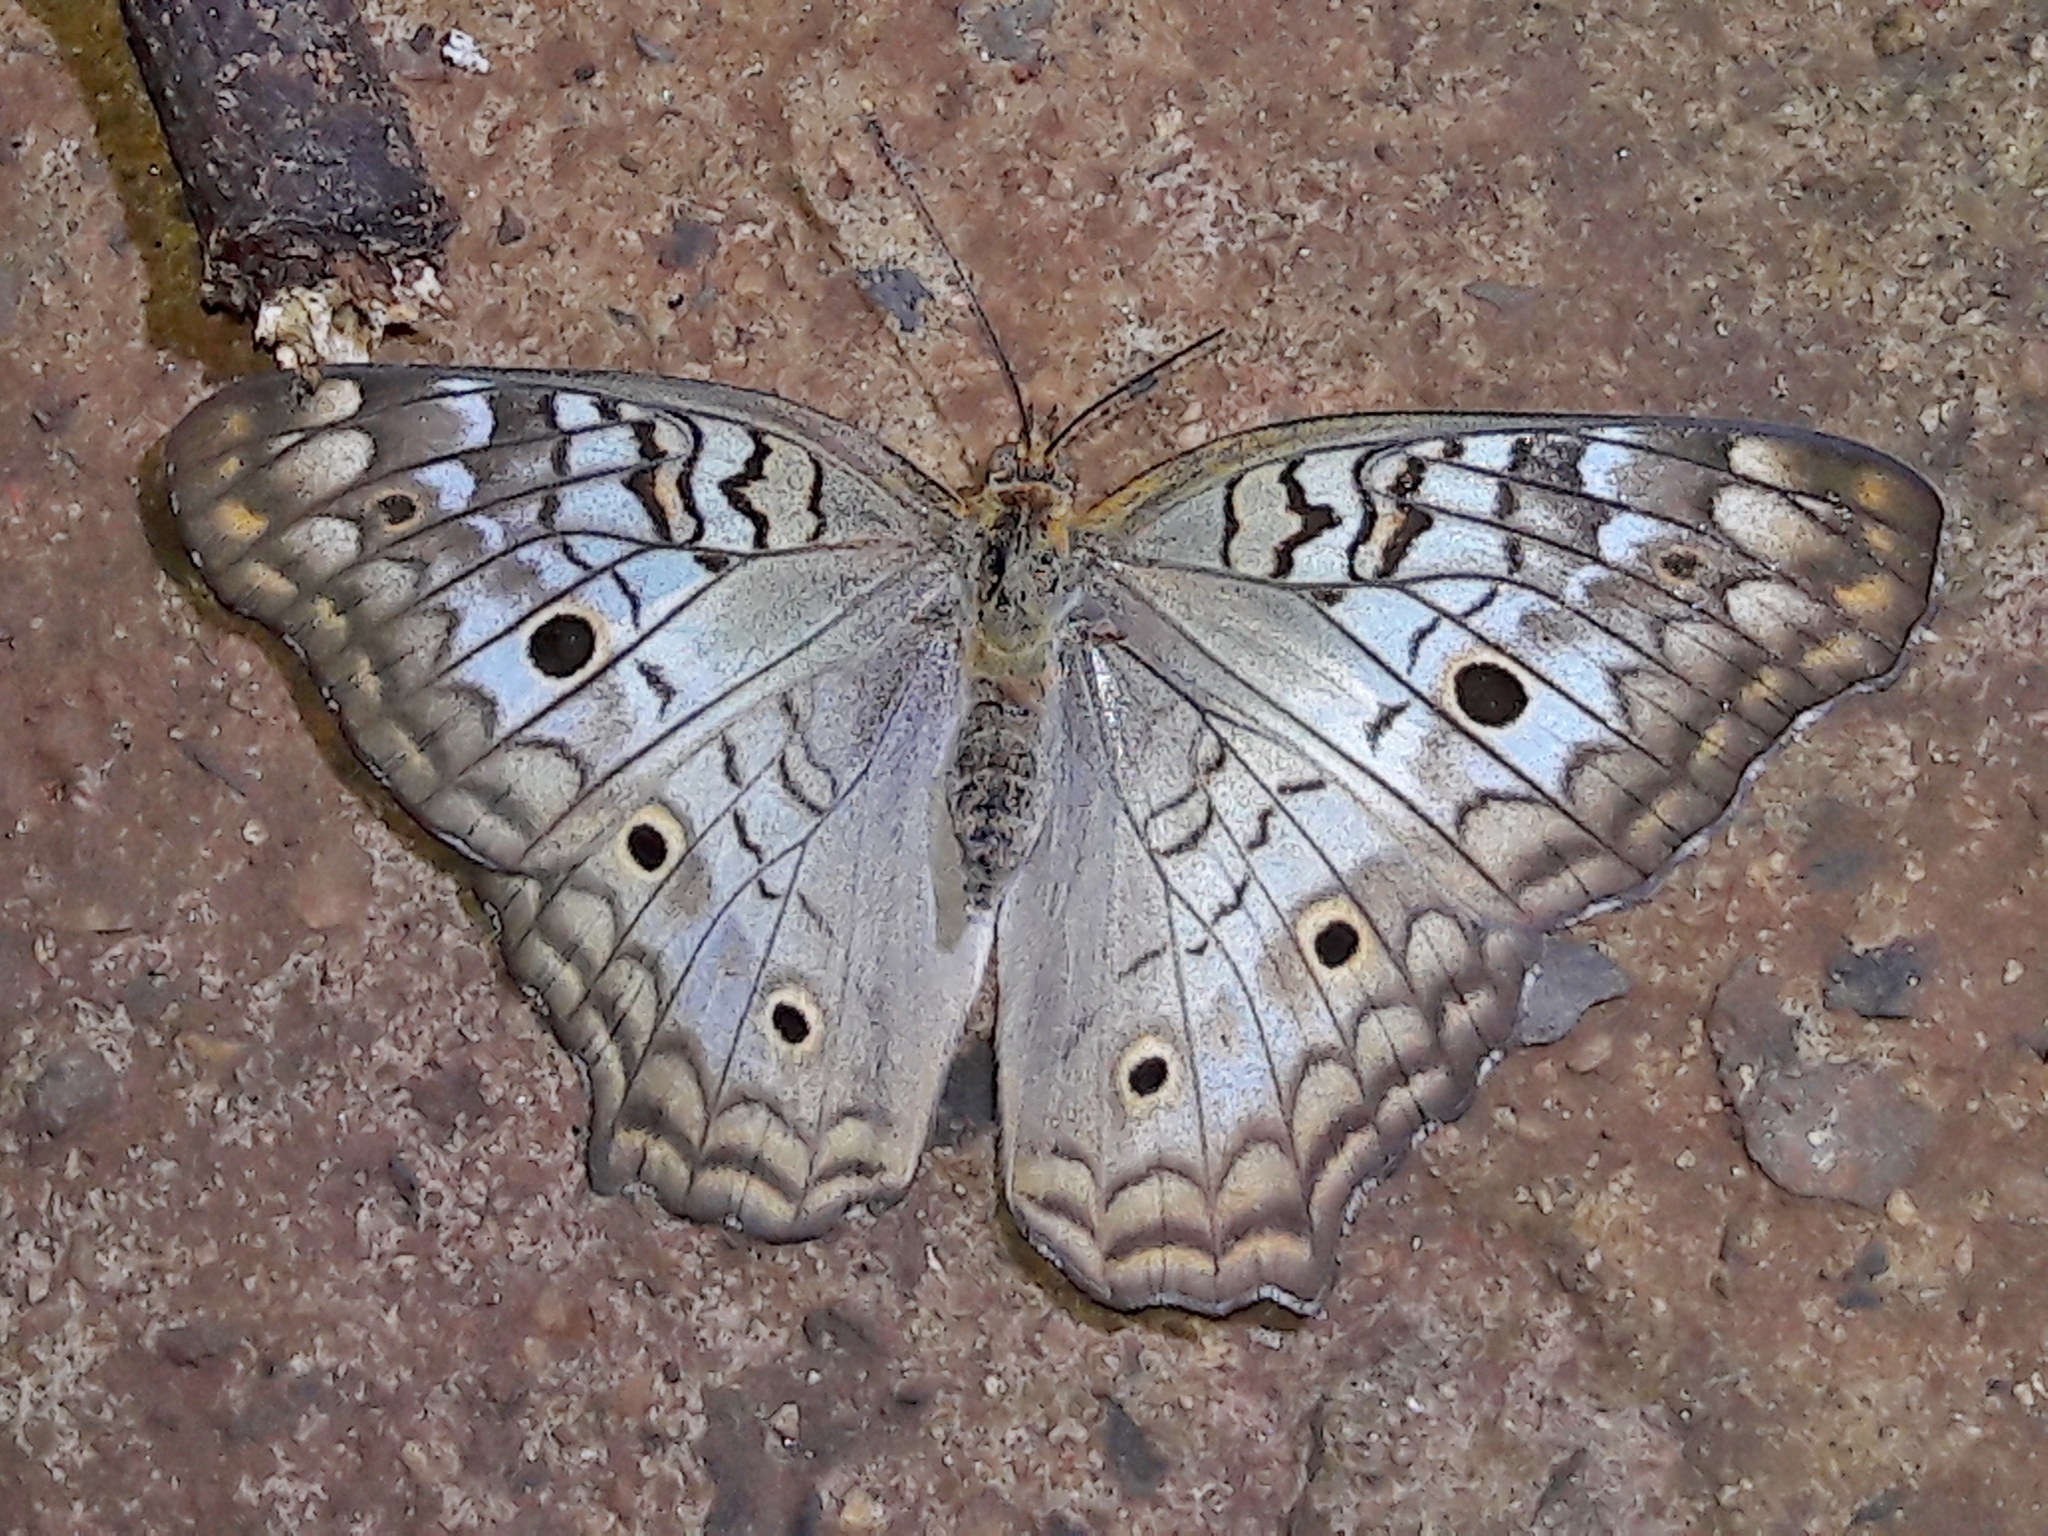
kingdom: Animalia
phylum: Arthropoda
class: Insecta
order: Lepidoptera
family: Nymphalidae
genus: Anartia
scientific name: Anartia jatrophae
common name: White peacock
